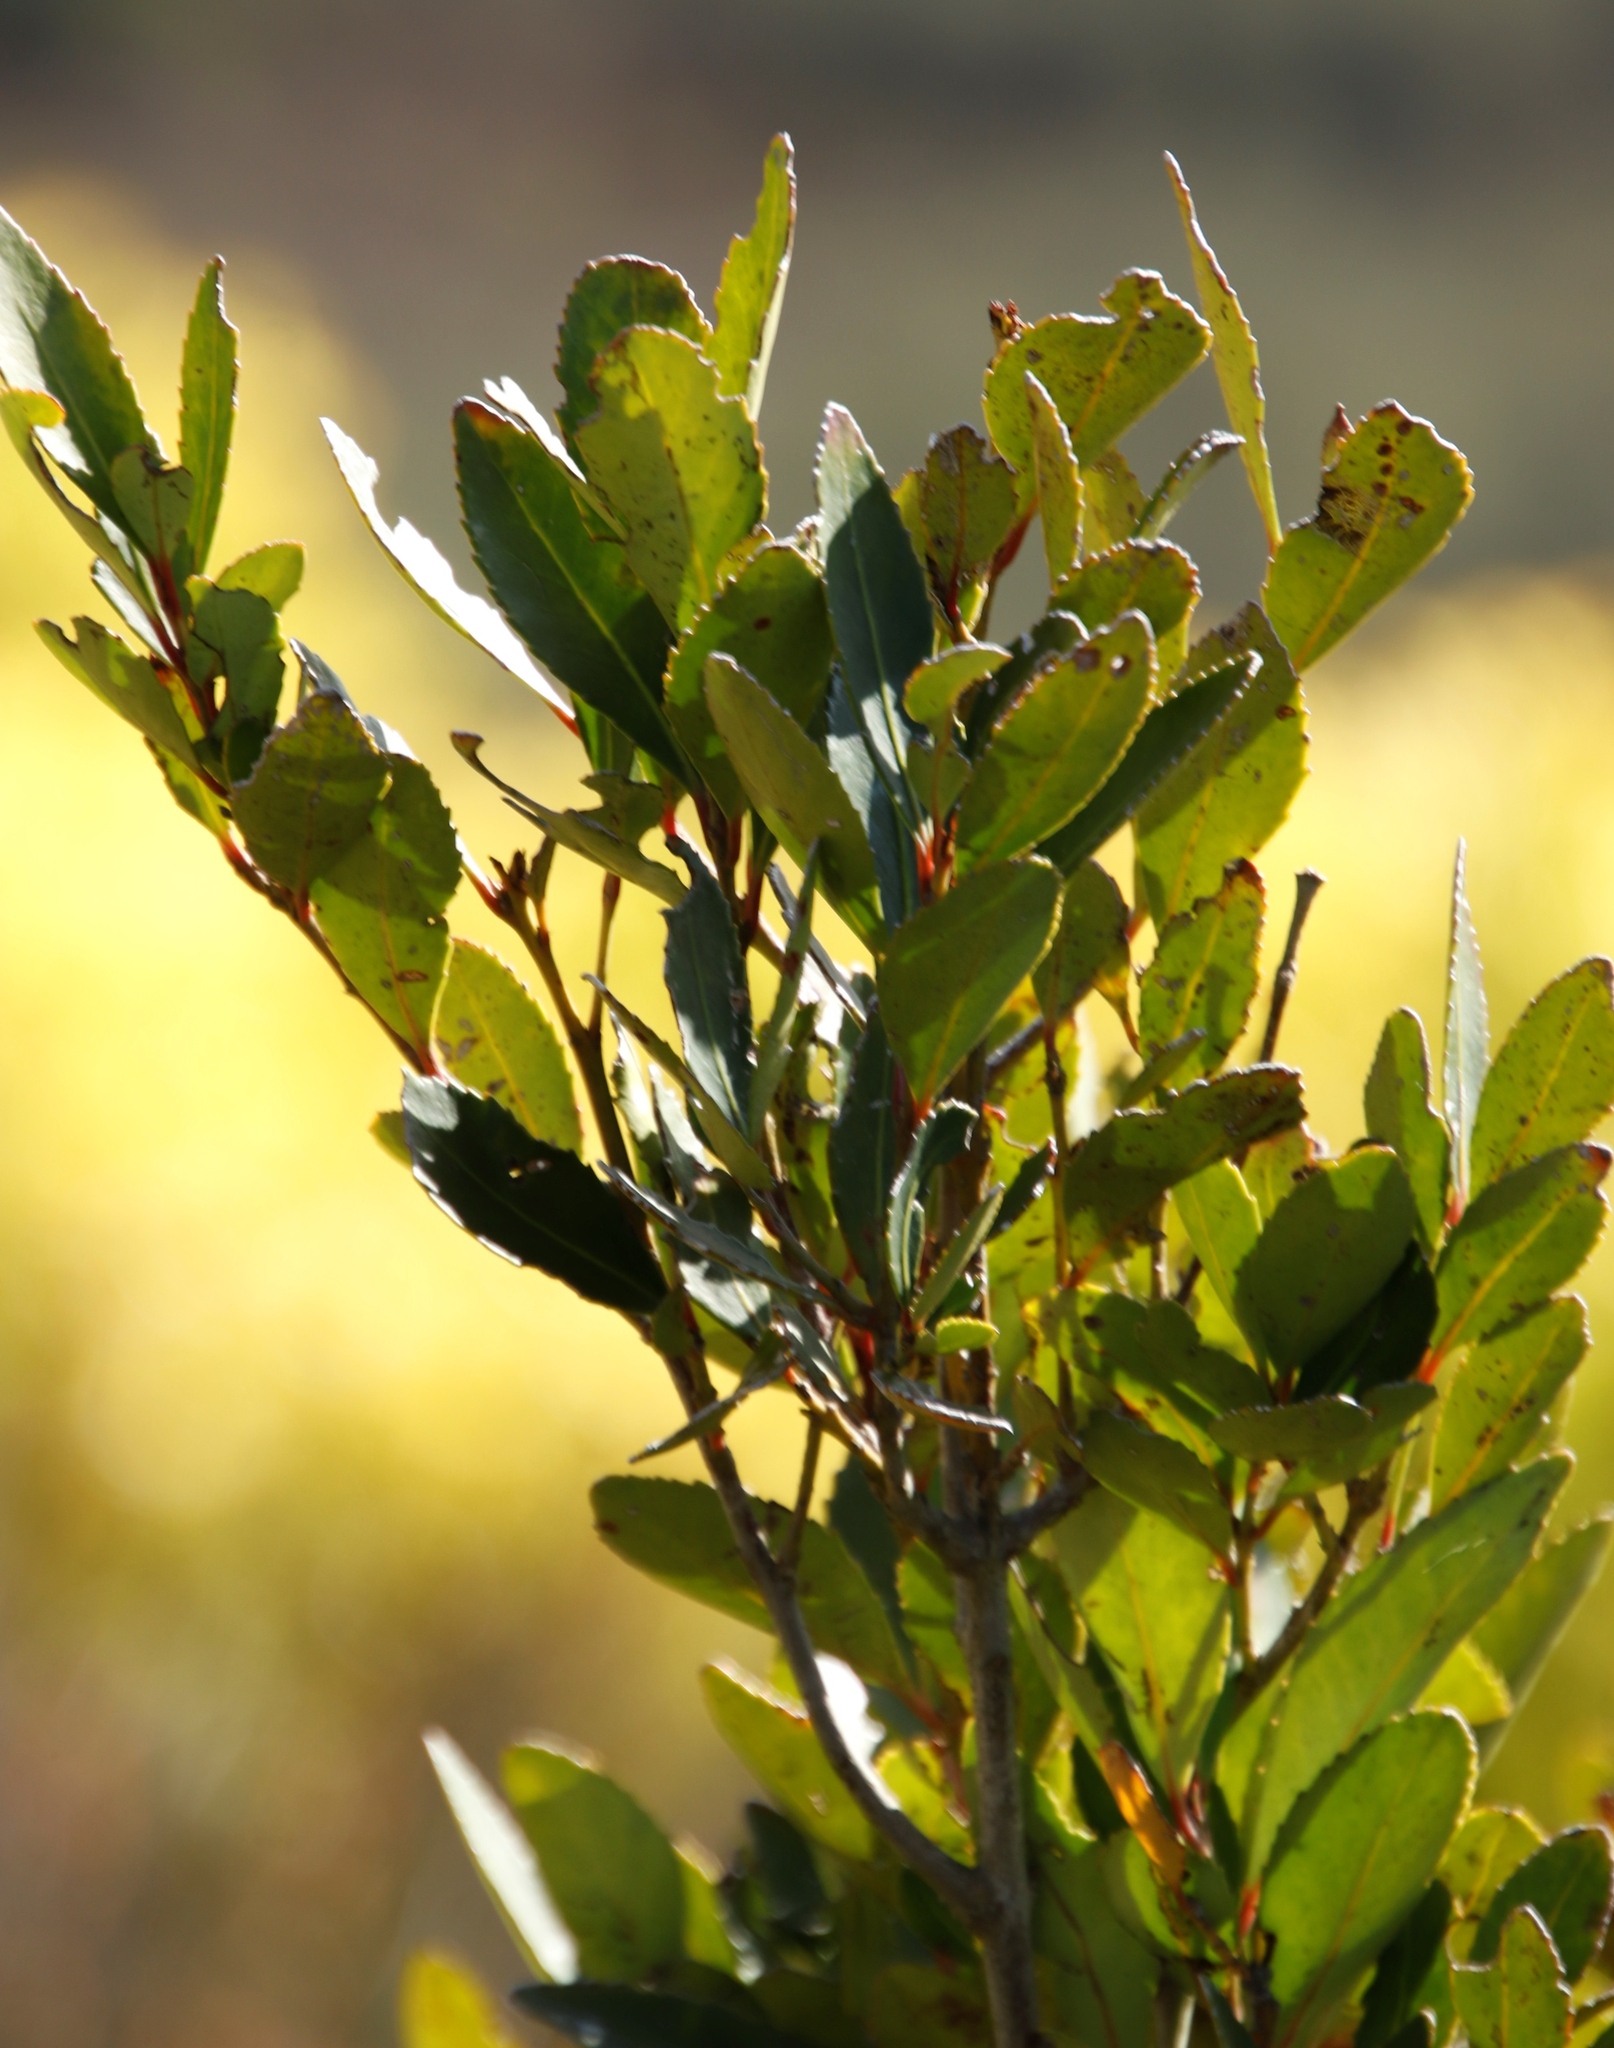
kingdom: Plantae
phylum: Tracheophyta
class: Magnoliopsida
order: Celastrales
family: Celastraceae
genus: Elaeodendron
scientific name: Elaeodendron schinoides
